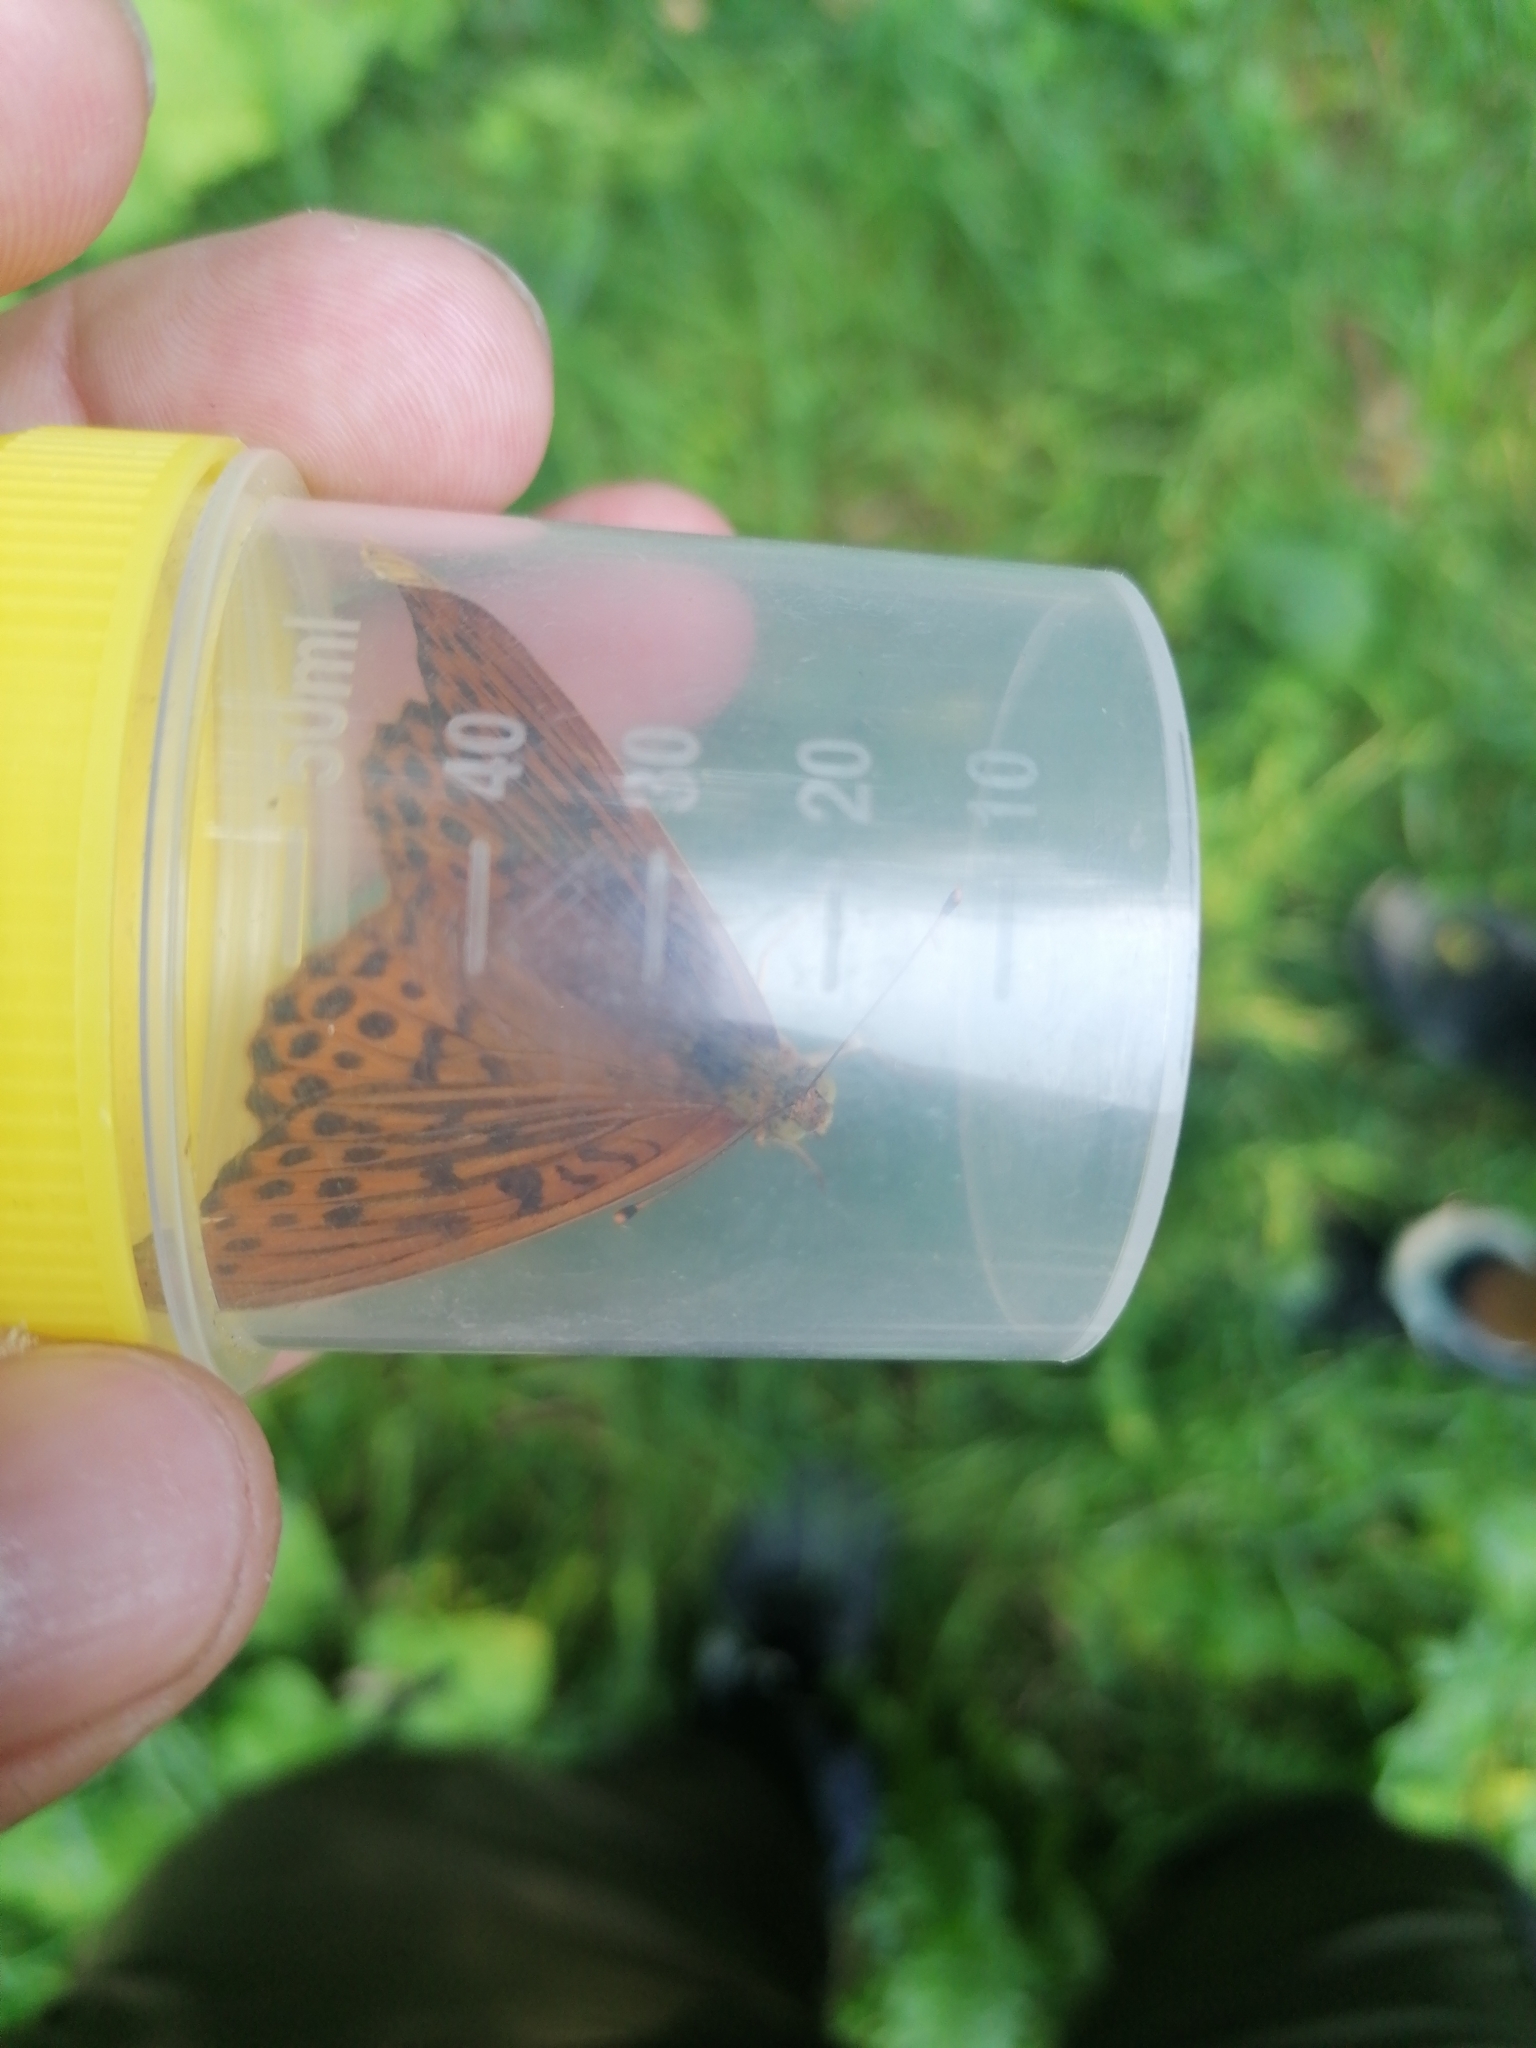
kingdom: Animalia
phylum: Arthropoda
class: Insecta
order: Lepidoptera
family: Nymphalidae
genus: Argynnis
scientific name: Argynnis paphia
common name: Silver-washed fritillary
